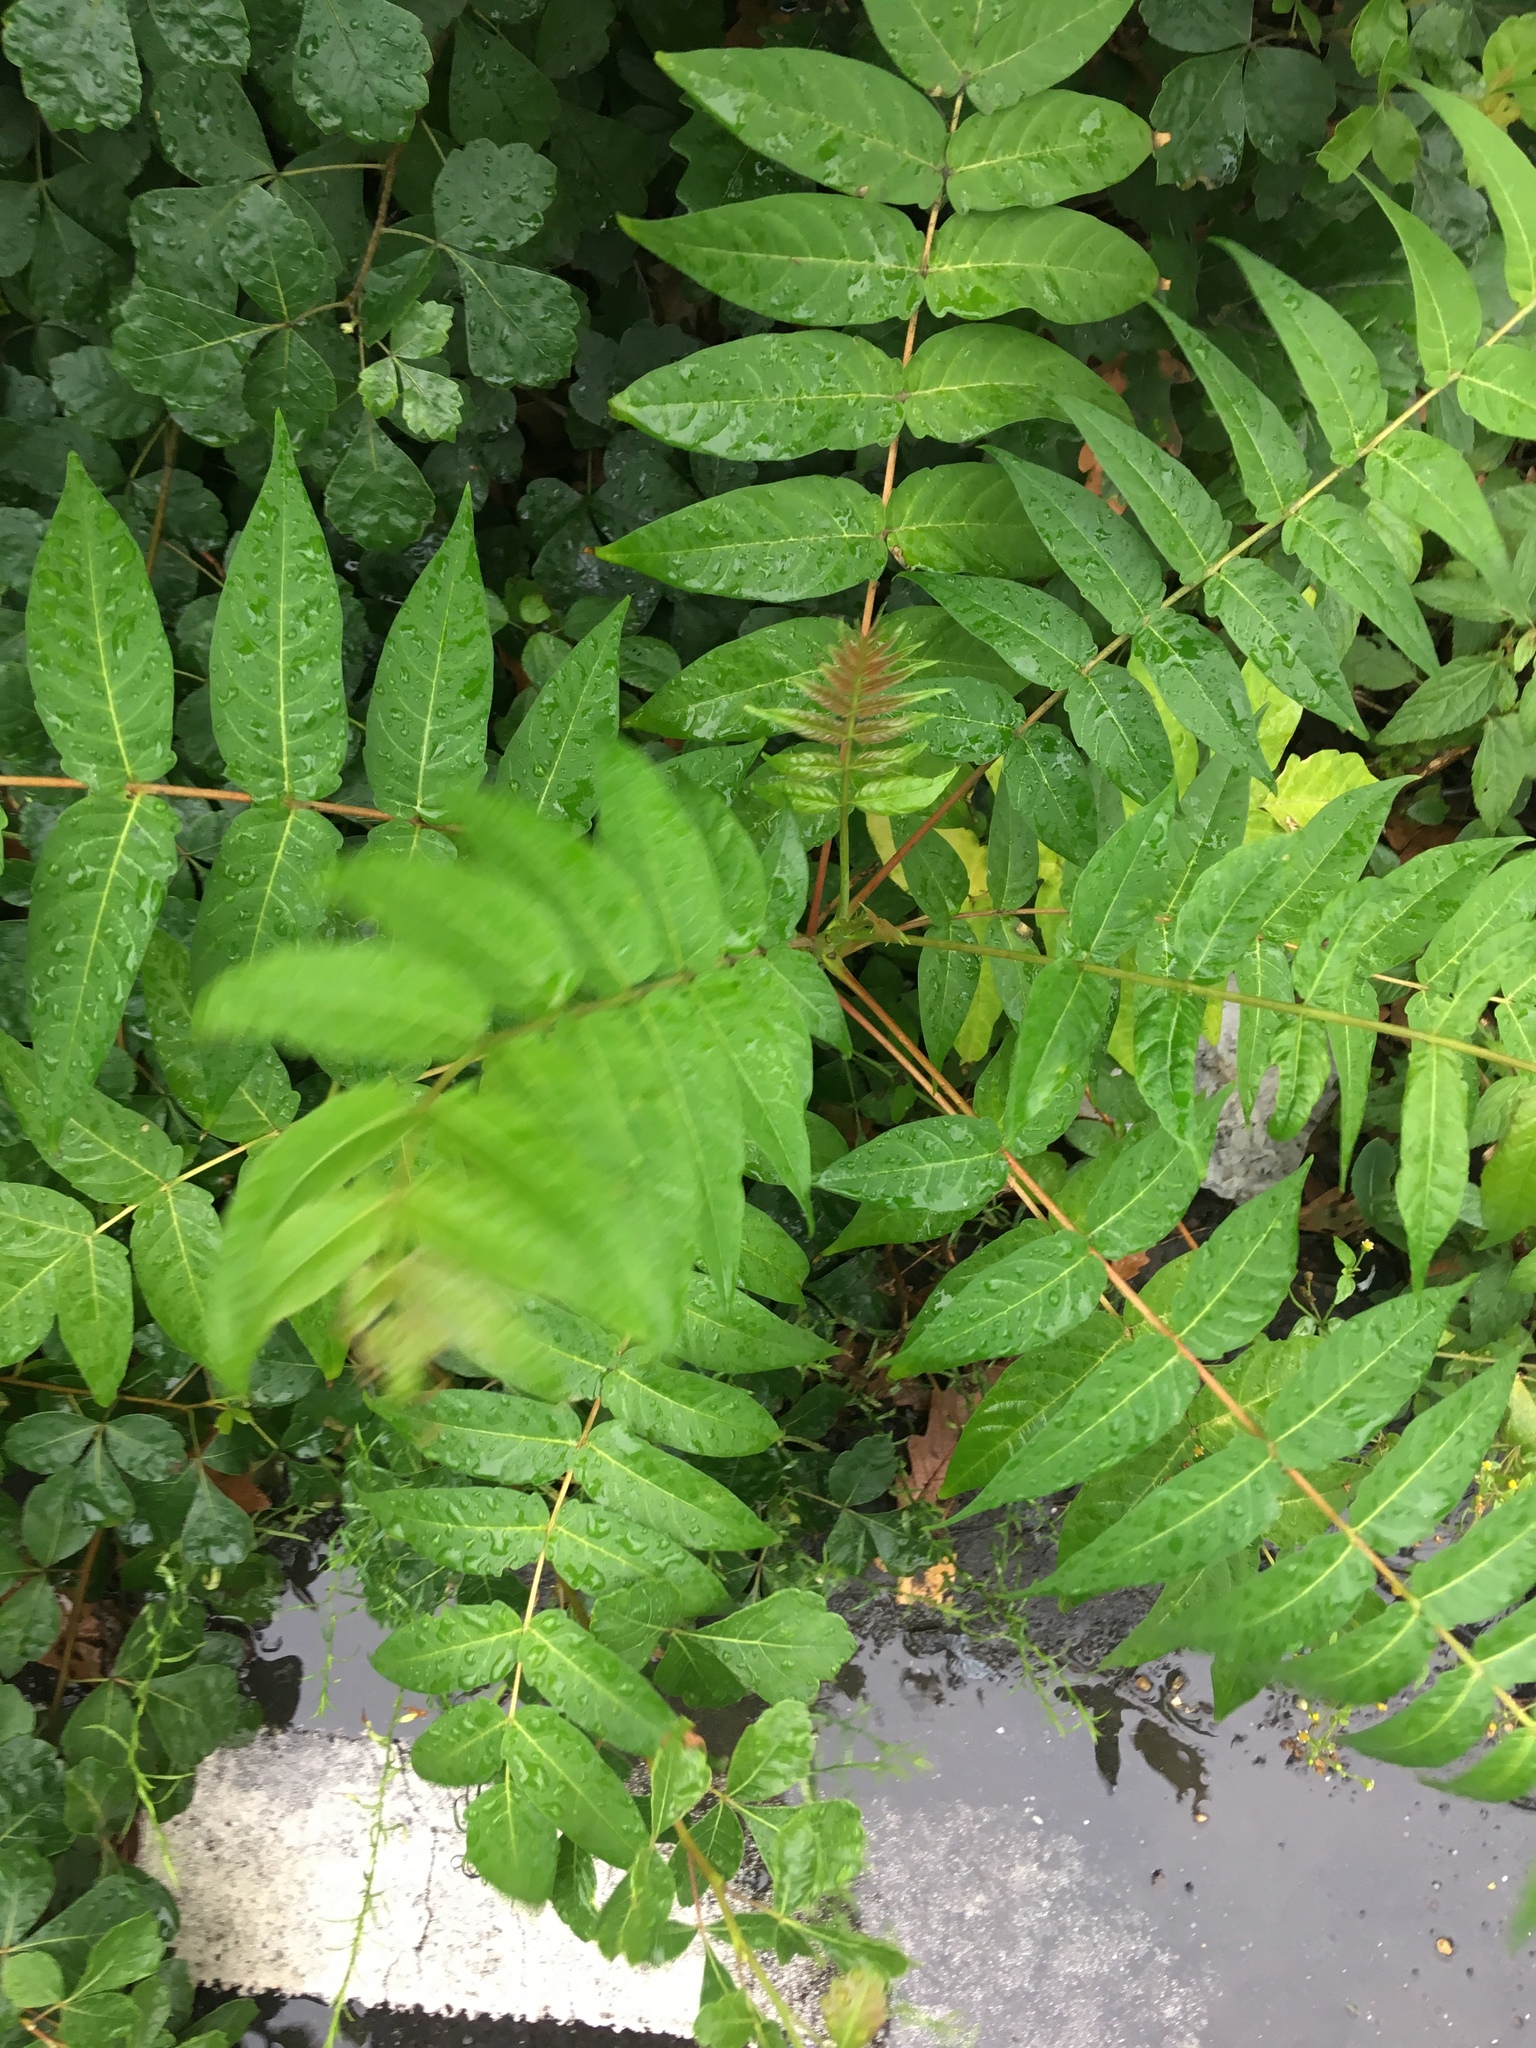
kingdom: Plantae
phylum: Tracheophyta
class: Magnoliopsida
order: Sapindales
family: Simaroubaceae
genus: Ailanthus
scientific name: Ailanthus altissima
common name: Tree-of-heaven
